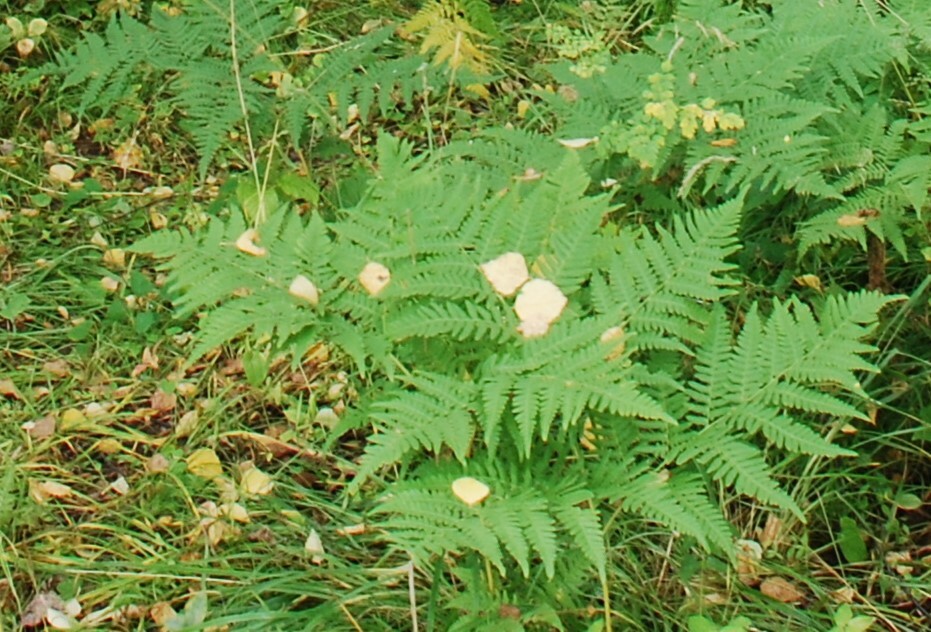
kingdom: Plantae
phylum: Tracheophyta
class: Polypodiopsida
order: Polypodiales
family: Dennstaedtiaceae
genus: Pteridium
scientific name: Pteridium aquilinum
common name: Bracken
